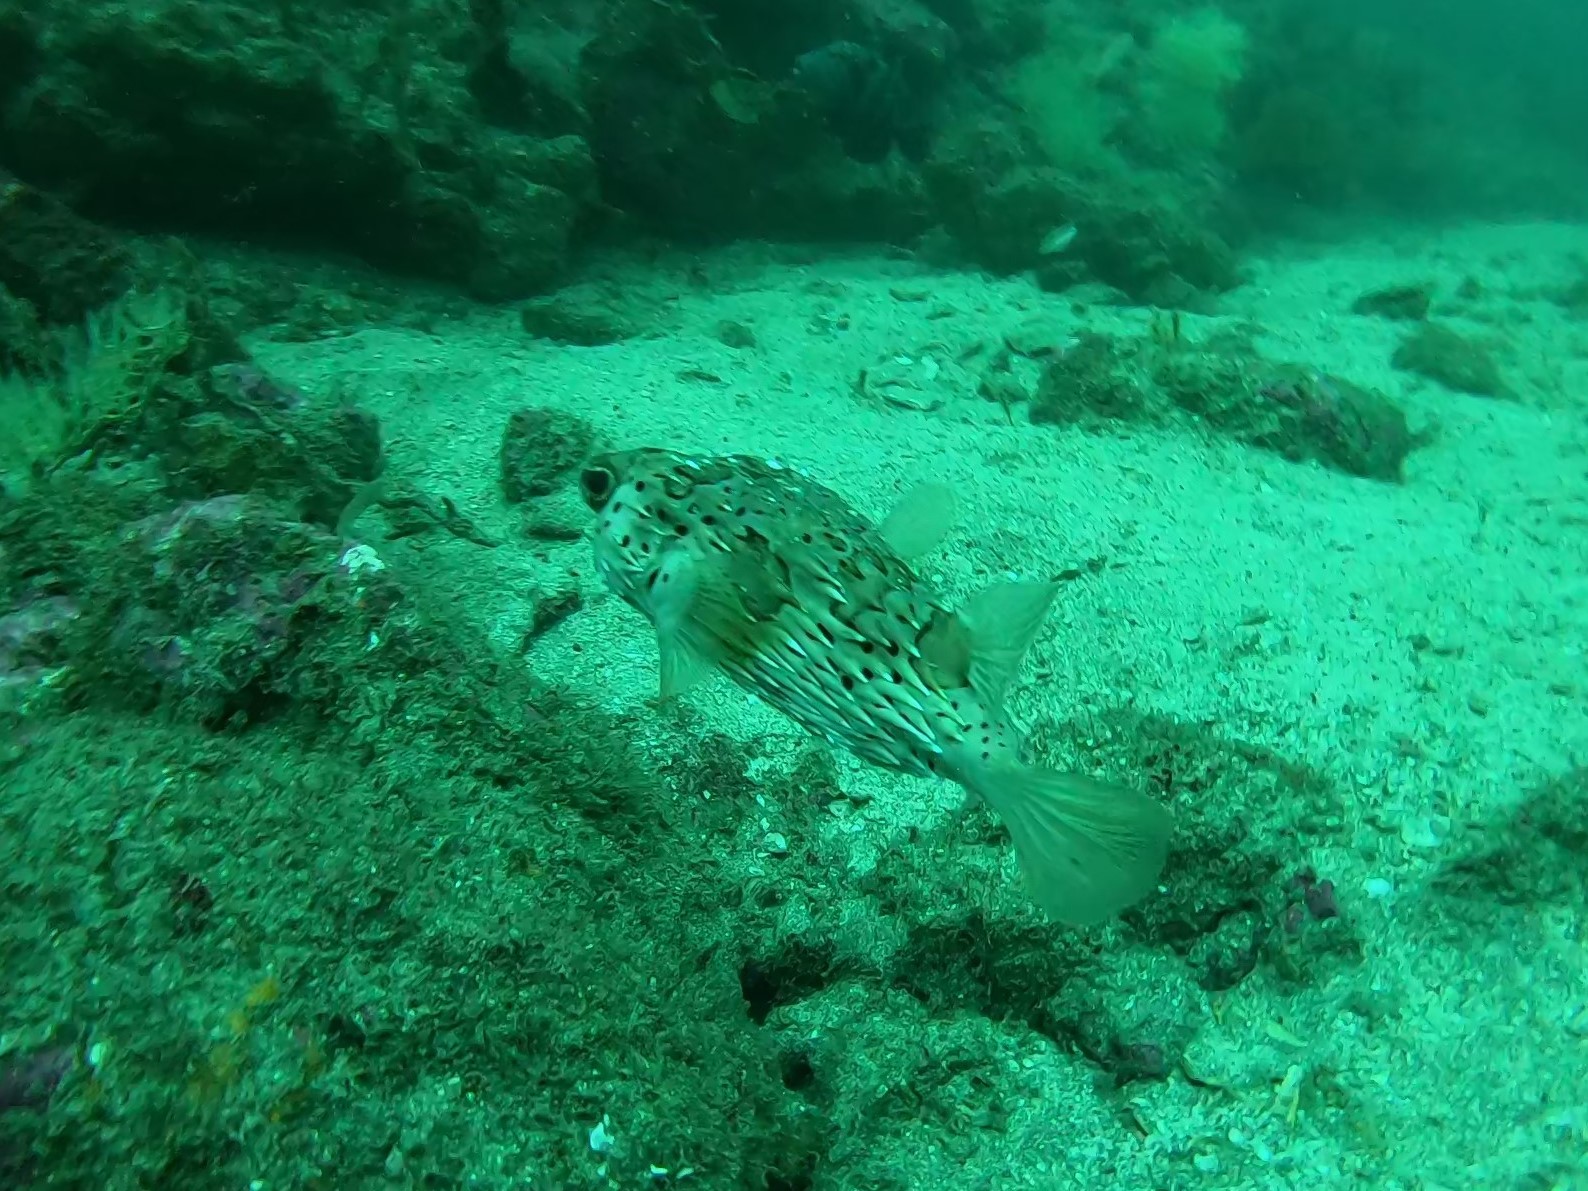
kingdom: Animalia
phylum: Chordata
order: Tetraodontiformes
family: Diodontidae
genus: Diodon
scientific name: Diodon holocanthus
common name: Balloonfish
